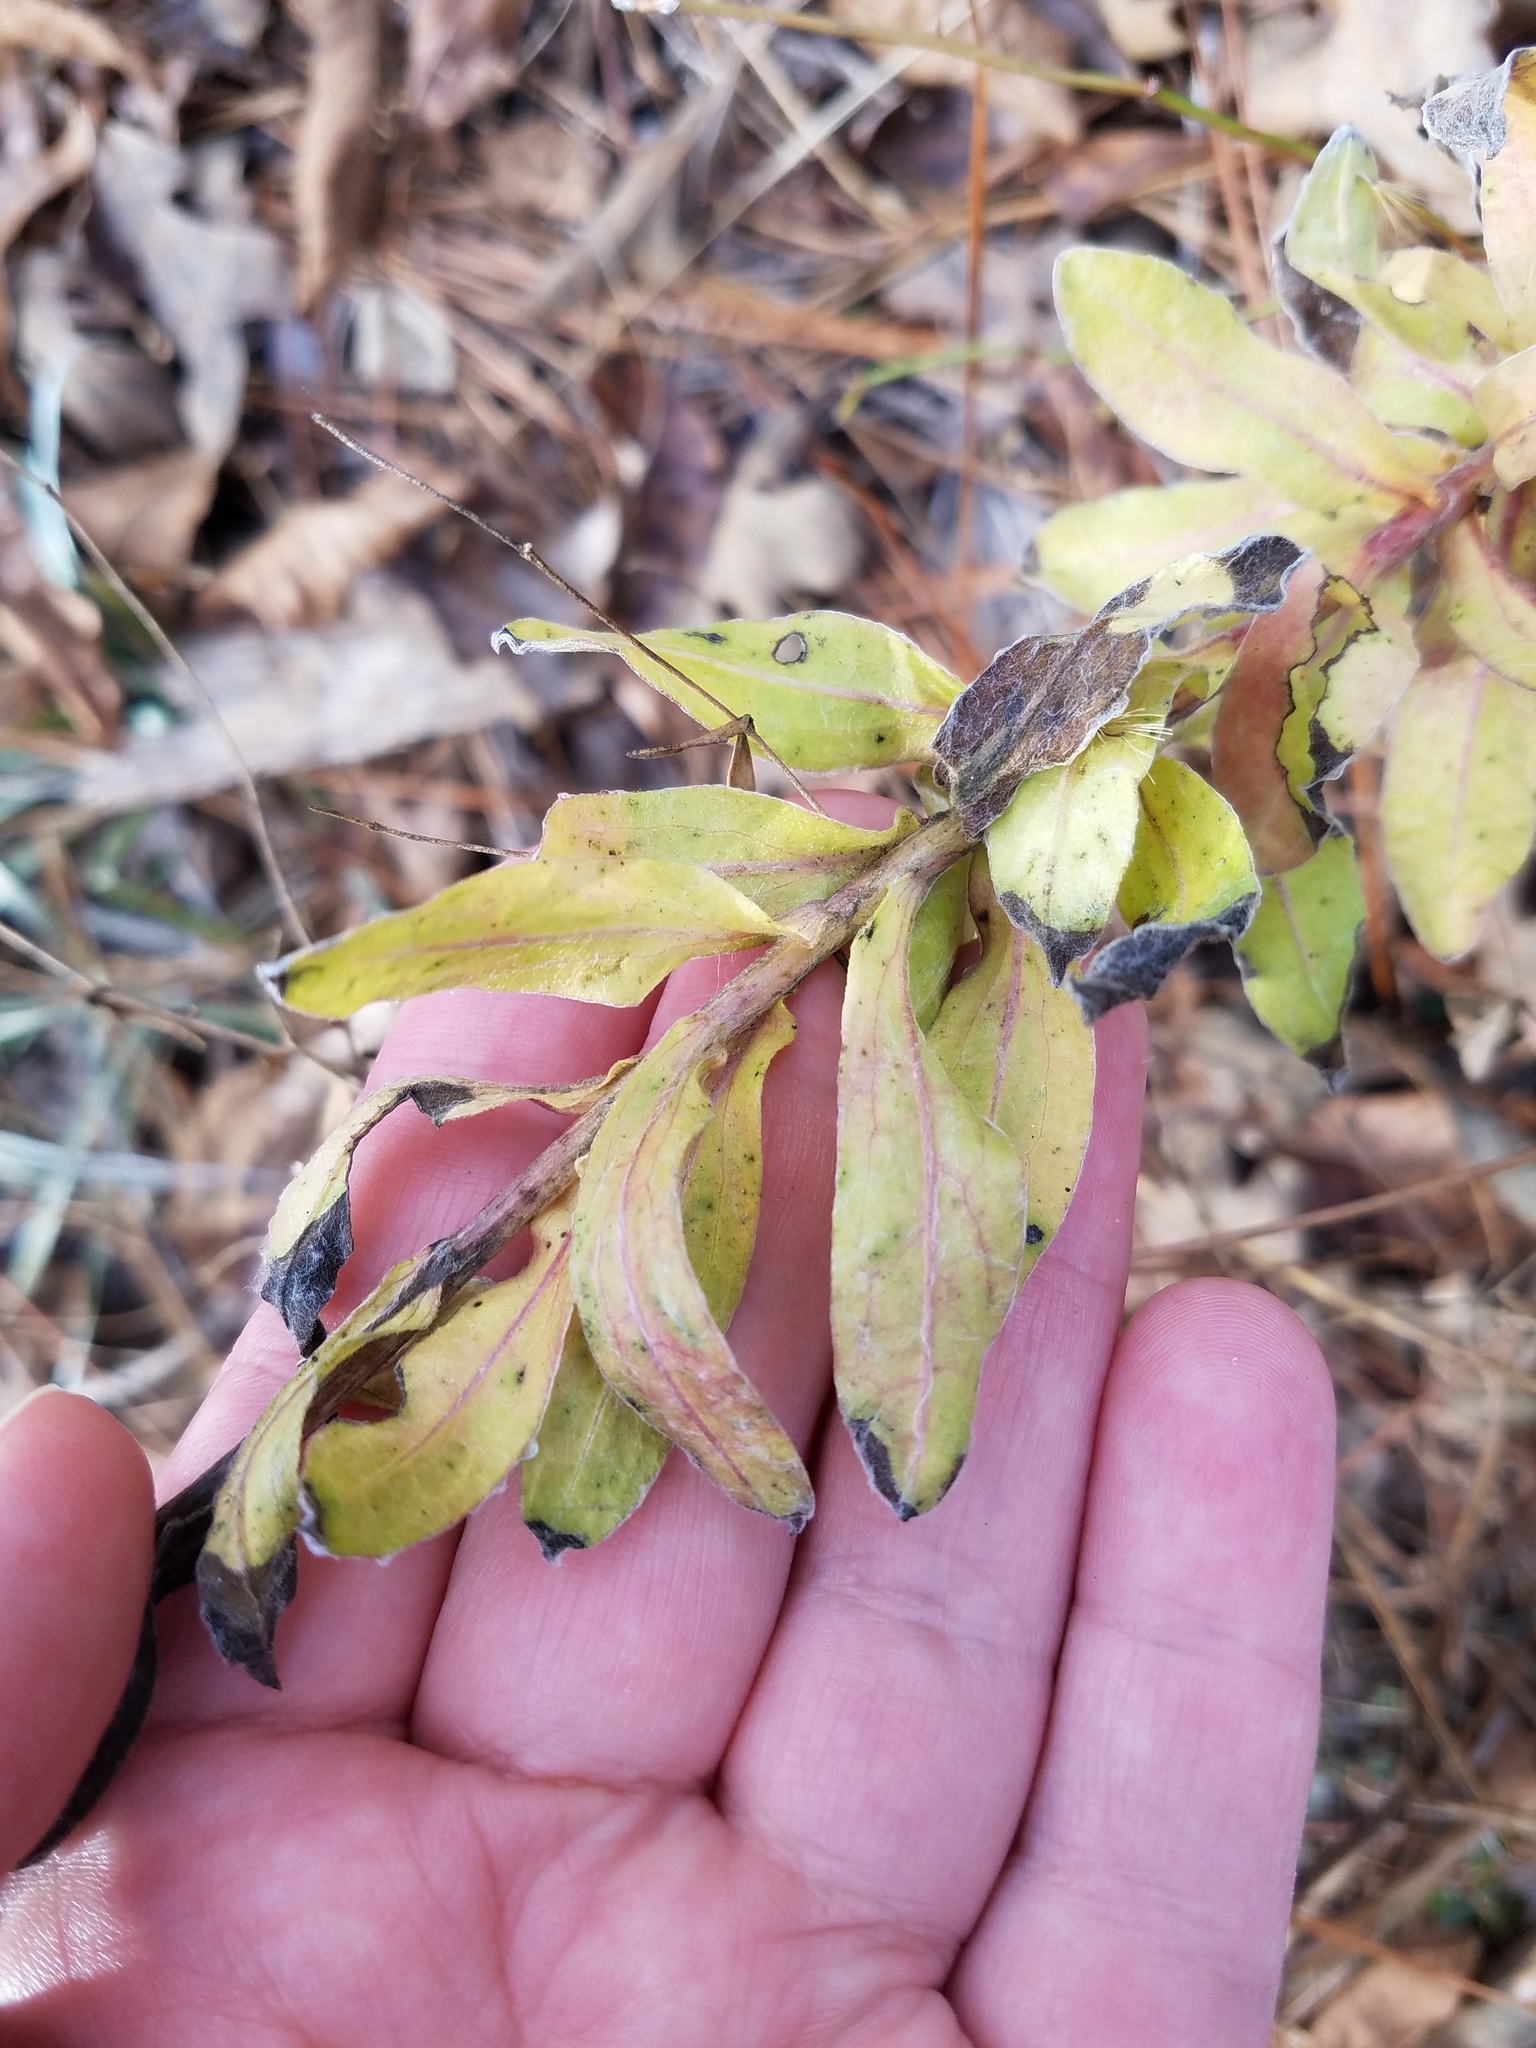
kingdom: Plantae
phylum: Tracheophyta
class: Magnoliopsida
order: Asterales
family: Asteraceae
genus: Chrysopsis
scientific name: Chrysopsis mariana
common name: Maryland golden-aster
